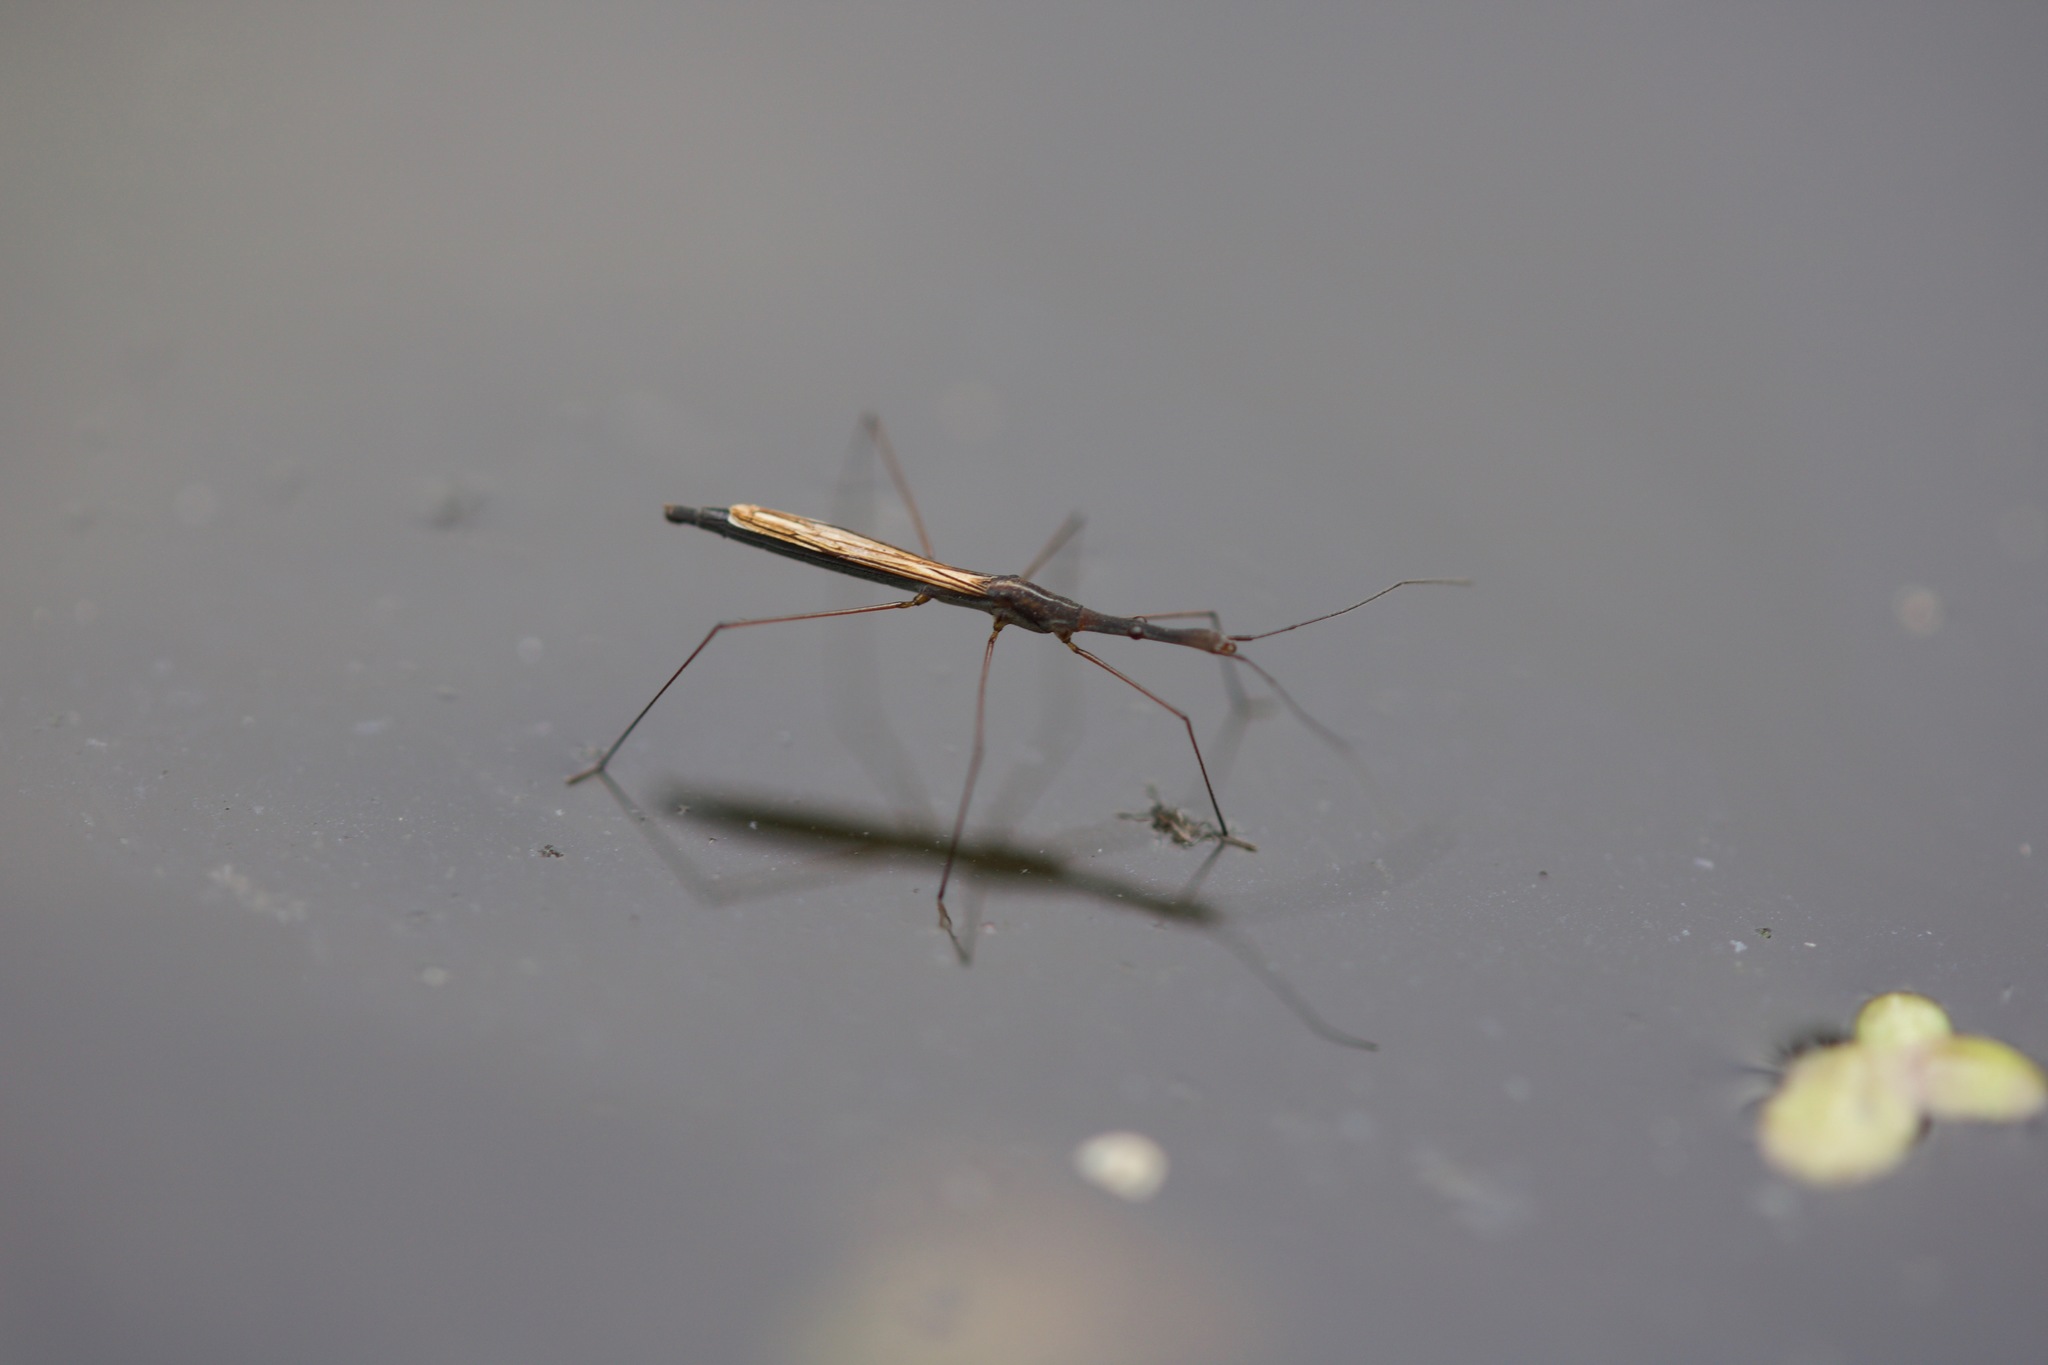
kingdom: Animalia
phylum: Arthropoda
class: Insecta
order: Hemiptera
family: Hydrometridae
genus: Hydrometra
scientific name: Hydrometra gracilenta
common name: Lesser water measurer
